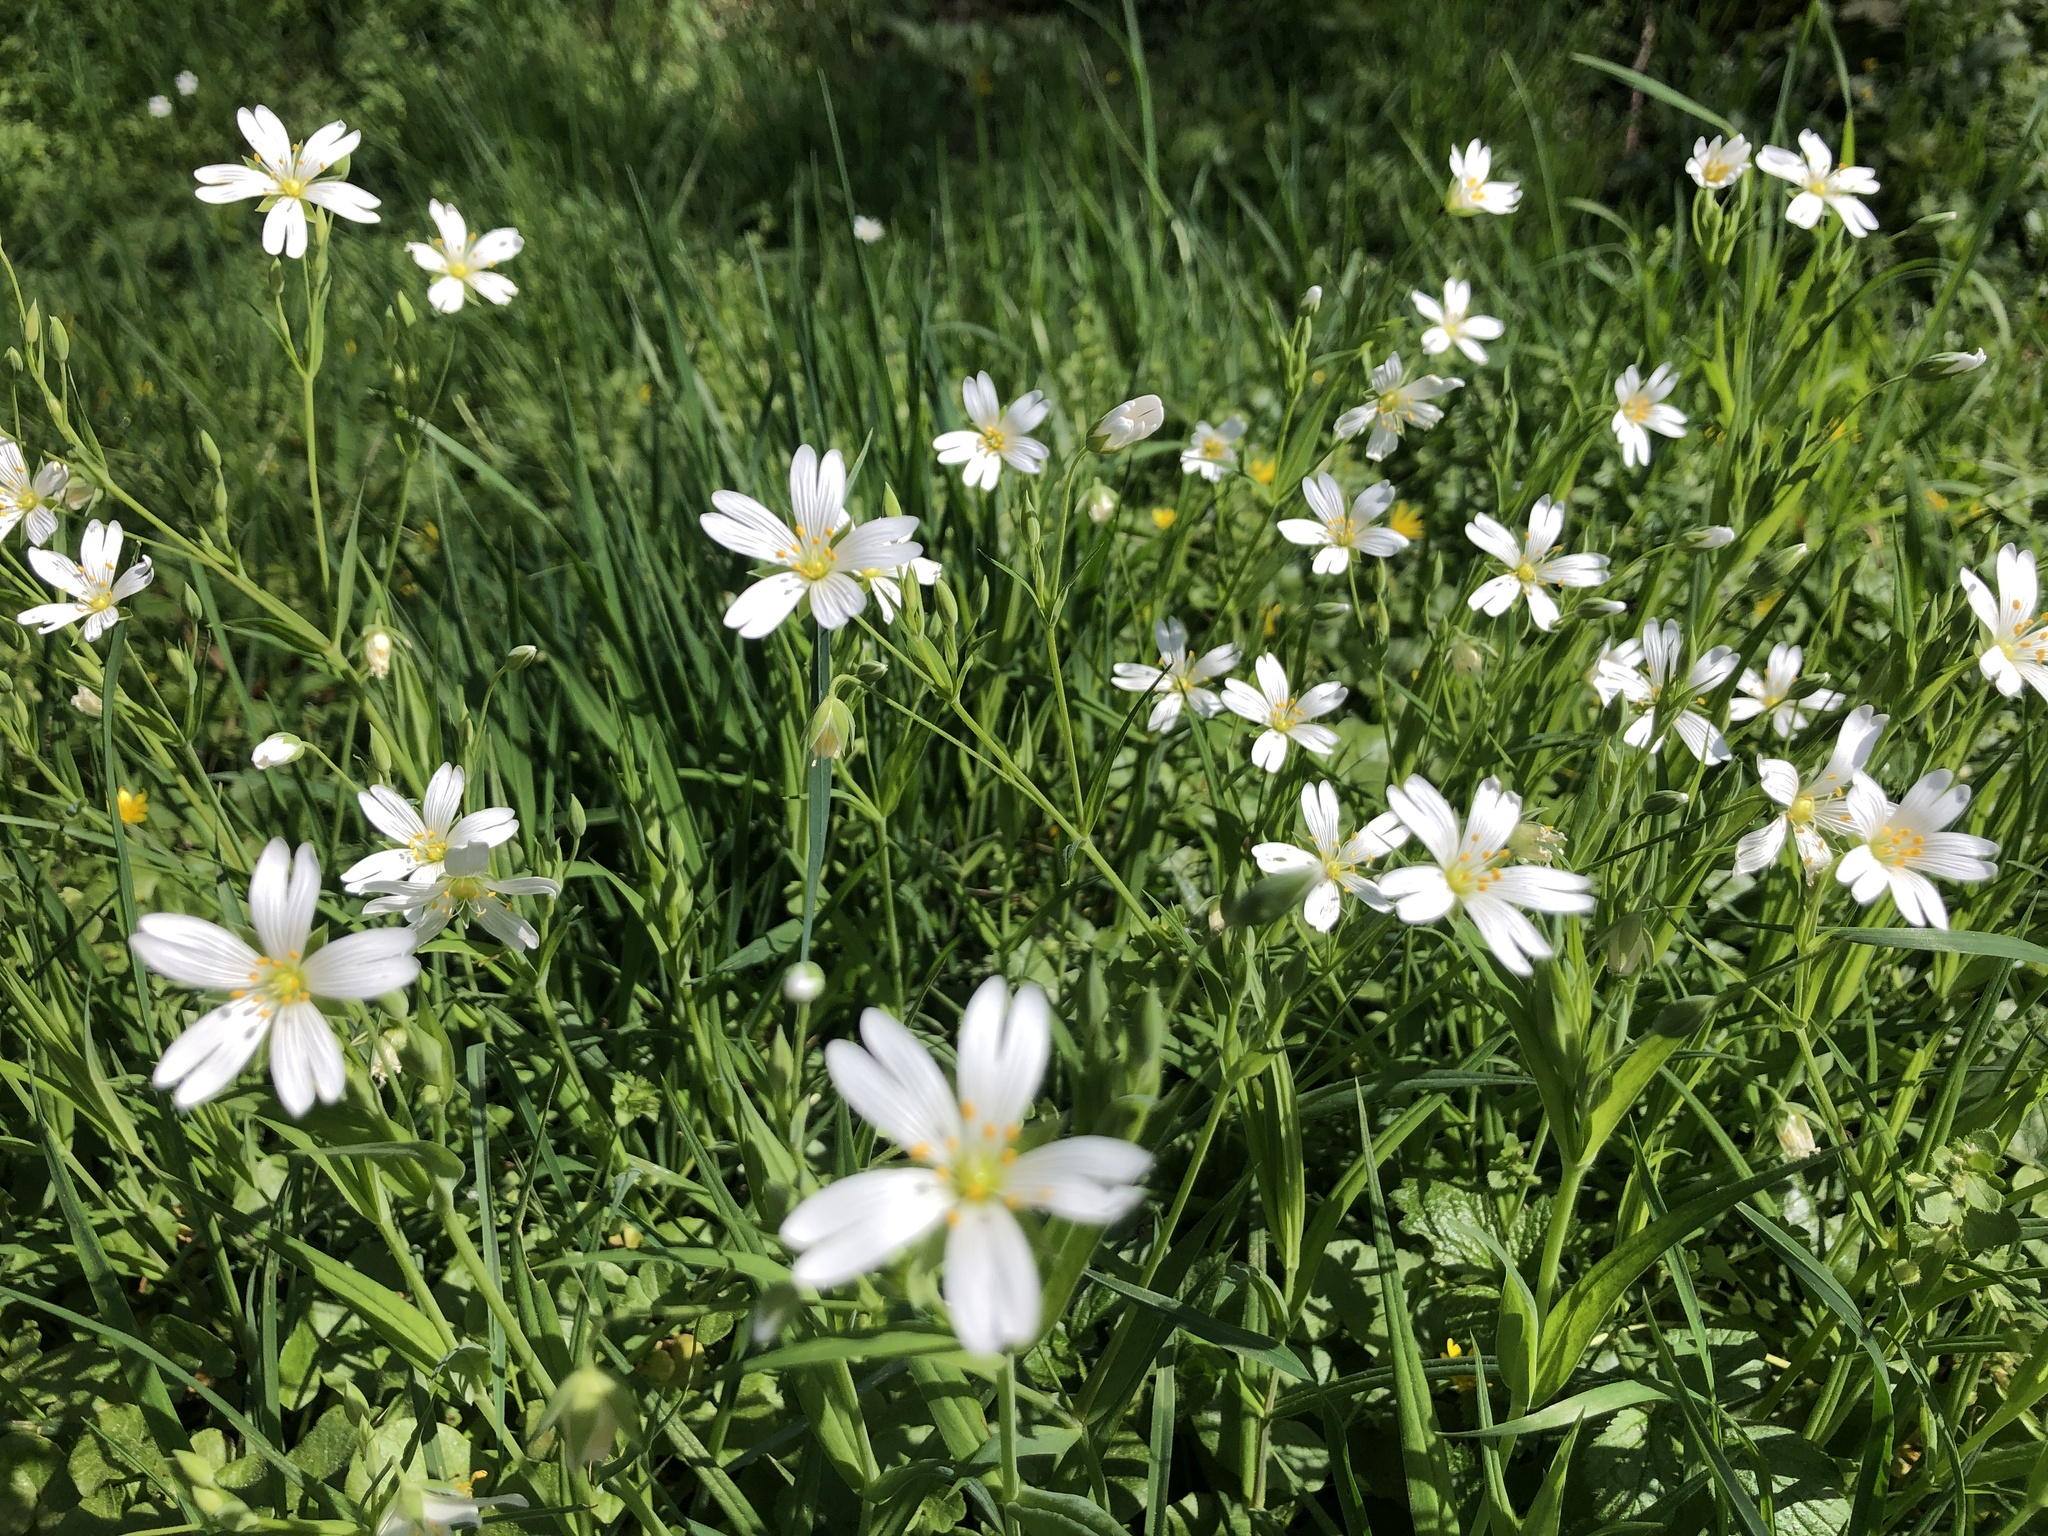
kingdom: Plantae
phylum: Tracheophyta
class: Magnoliopsida
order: Caryophyllales
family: Caryophyllaceae
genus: Rabelera
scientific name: Rabelera holostea
